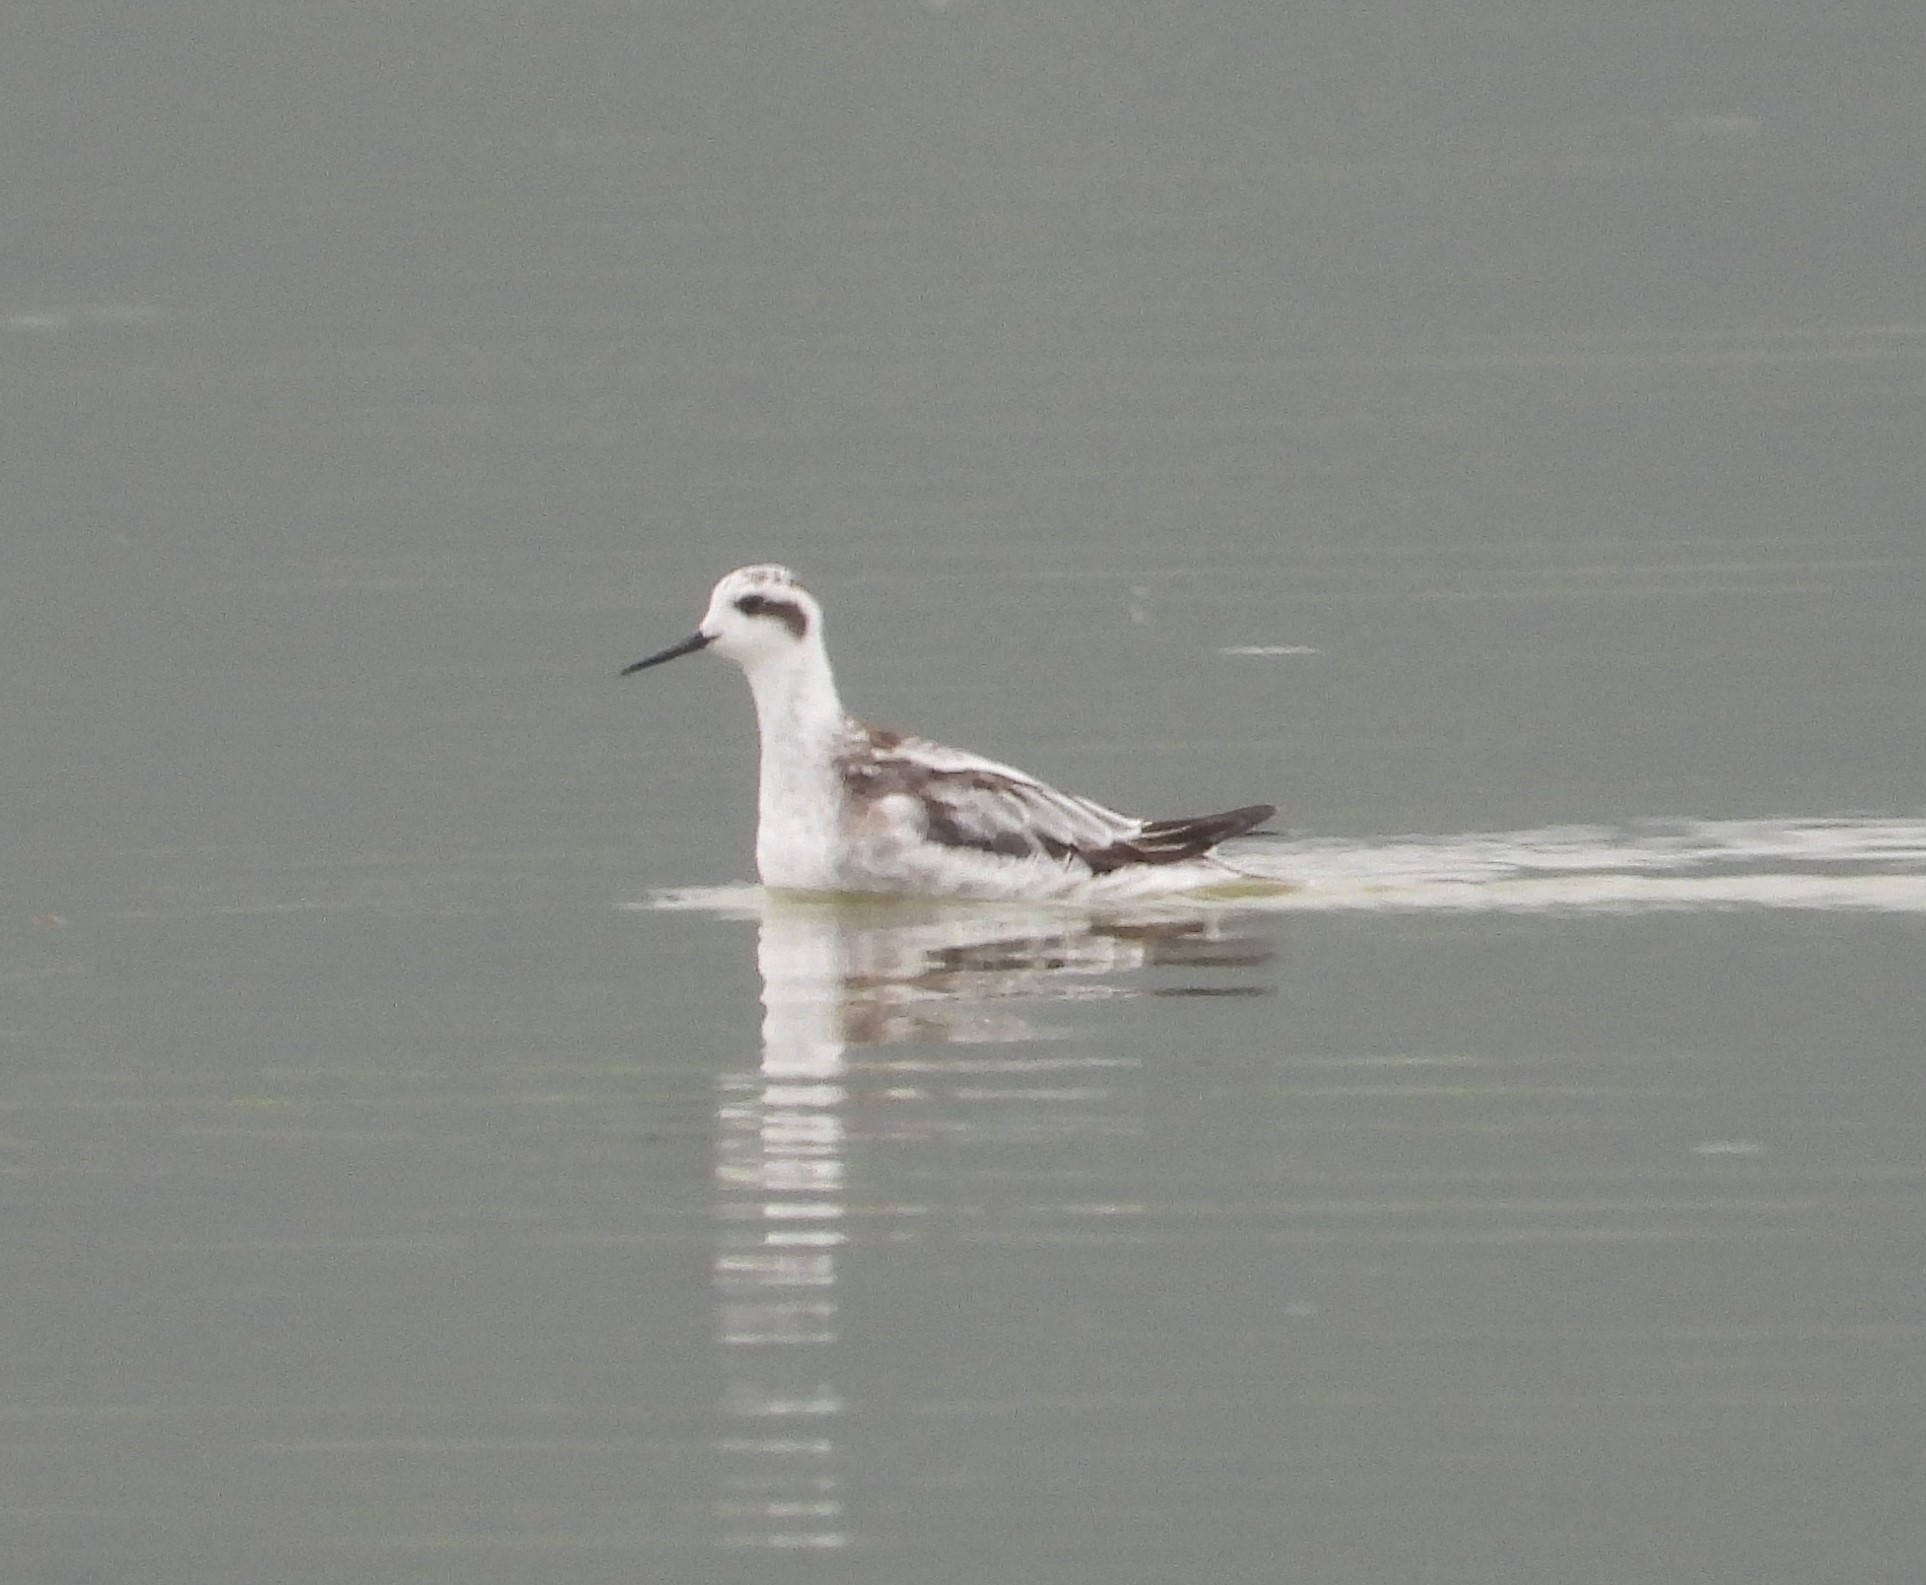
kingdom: Animalia
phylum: Chordata
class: Aves
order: Charadriiformes
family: Scolopacidae
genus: Phalaropus
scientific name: Phalaropus lobatus
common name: Red-necked phalarope
